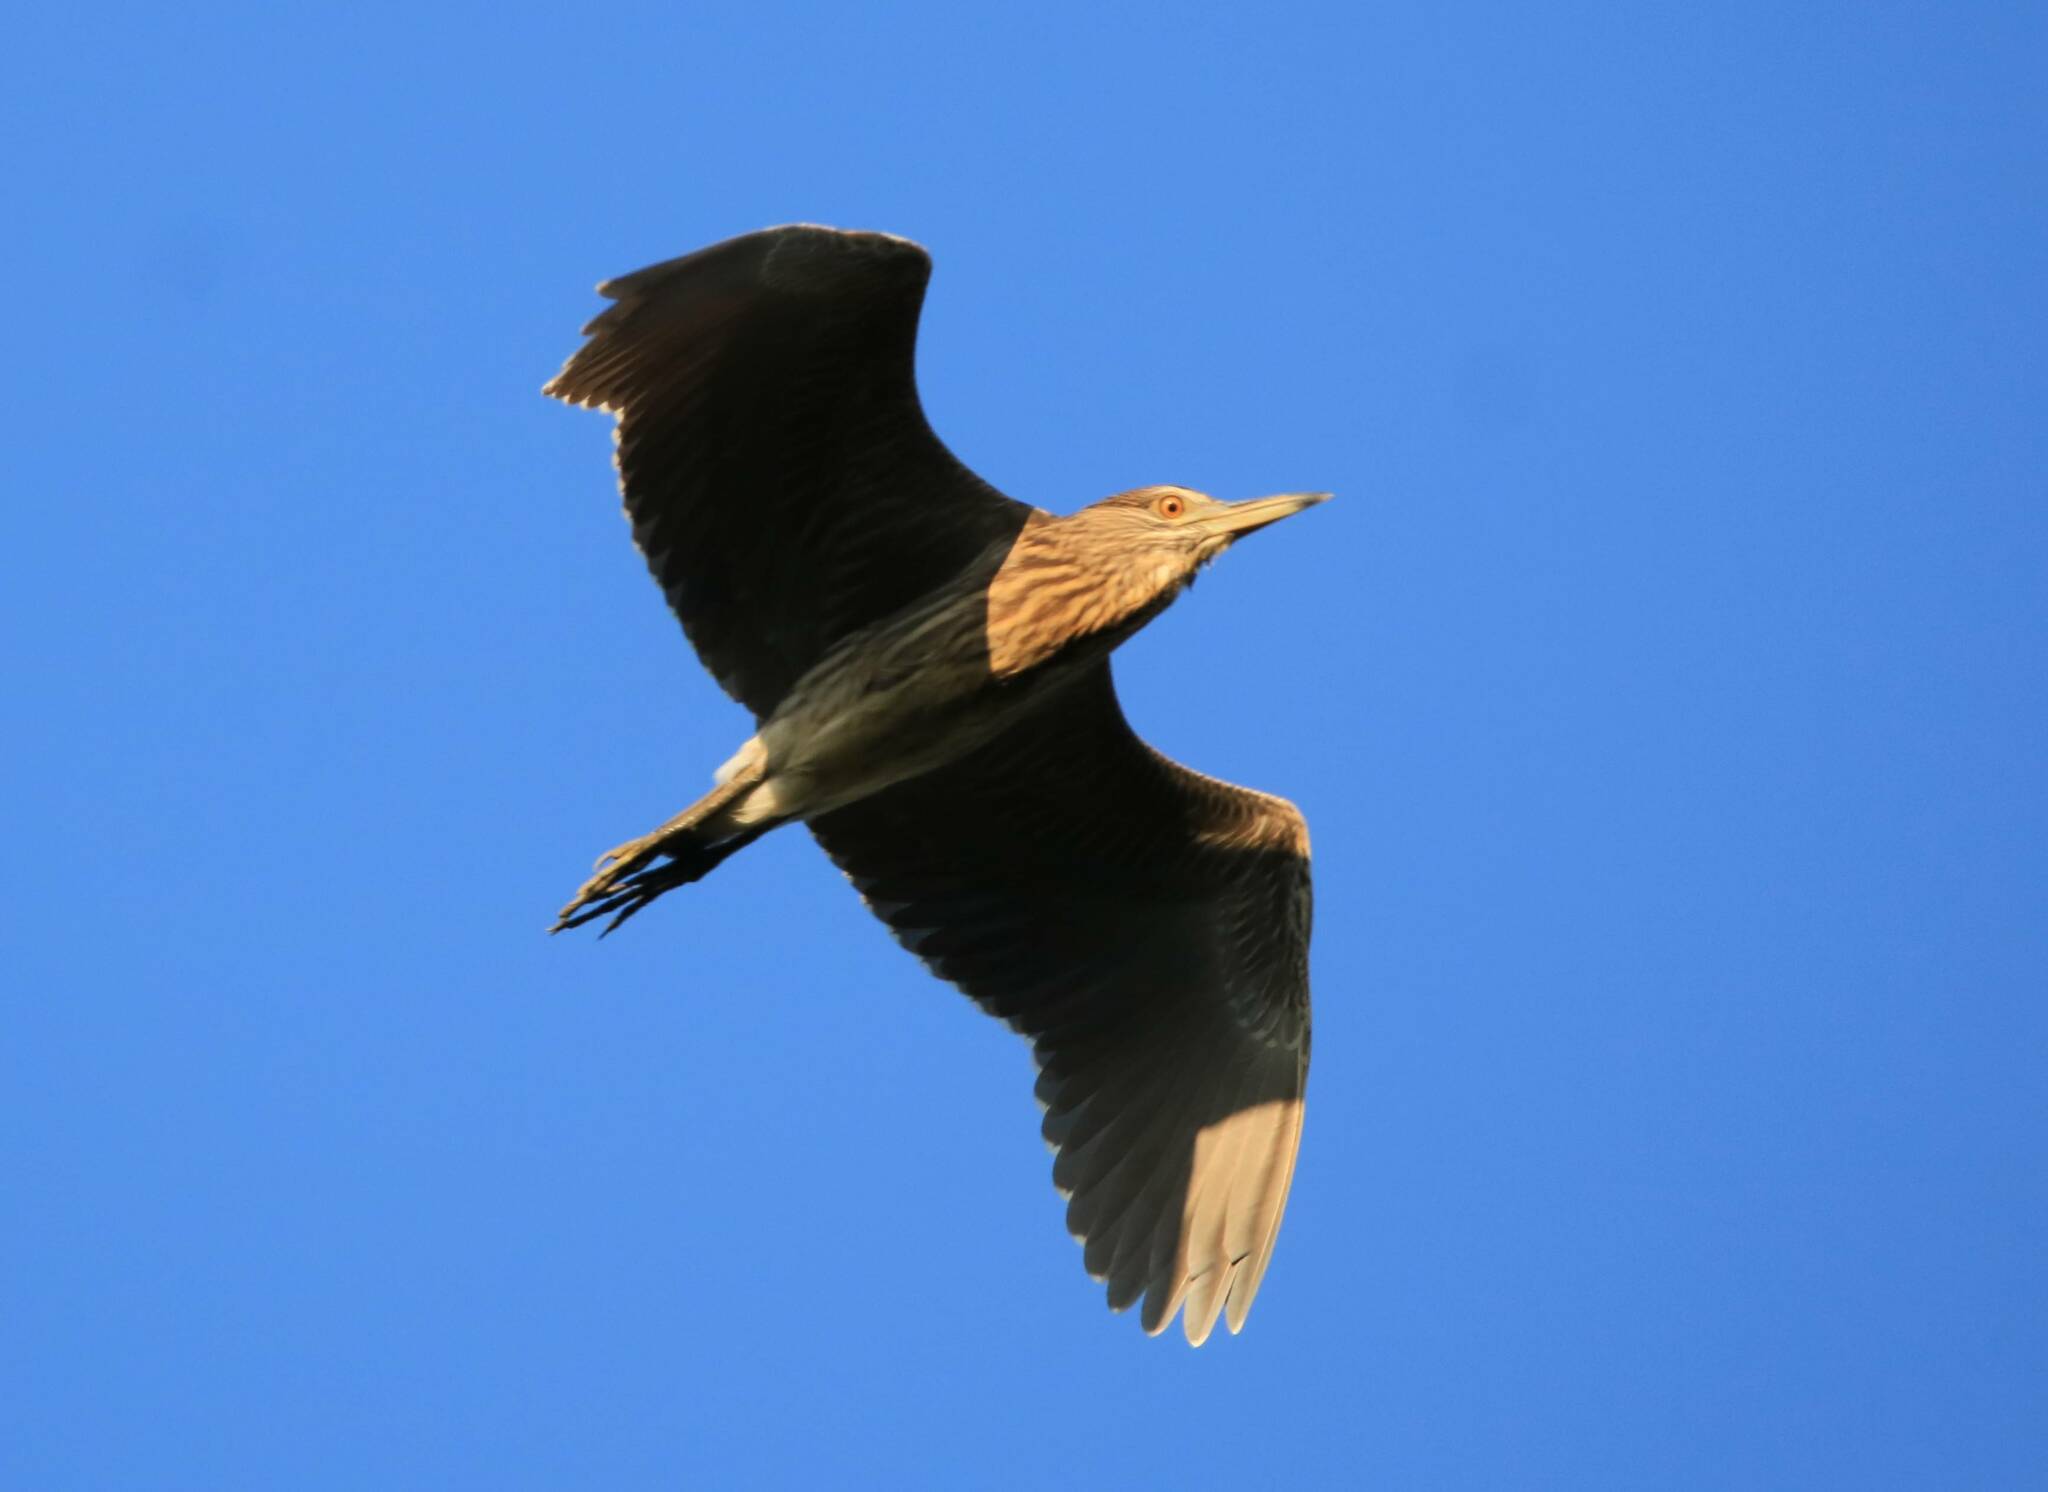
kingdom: Animalia
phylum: Chordata
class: Aves
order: Pelecaniformes
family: Ardeidae
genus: Nycticorax
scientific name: Nycticorax nycticorax
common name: Black-crowned night heron
